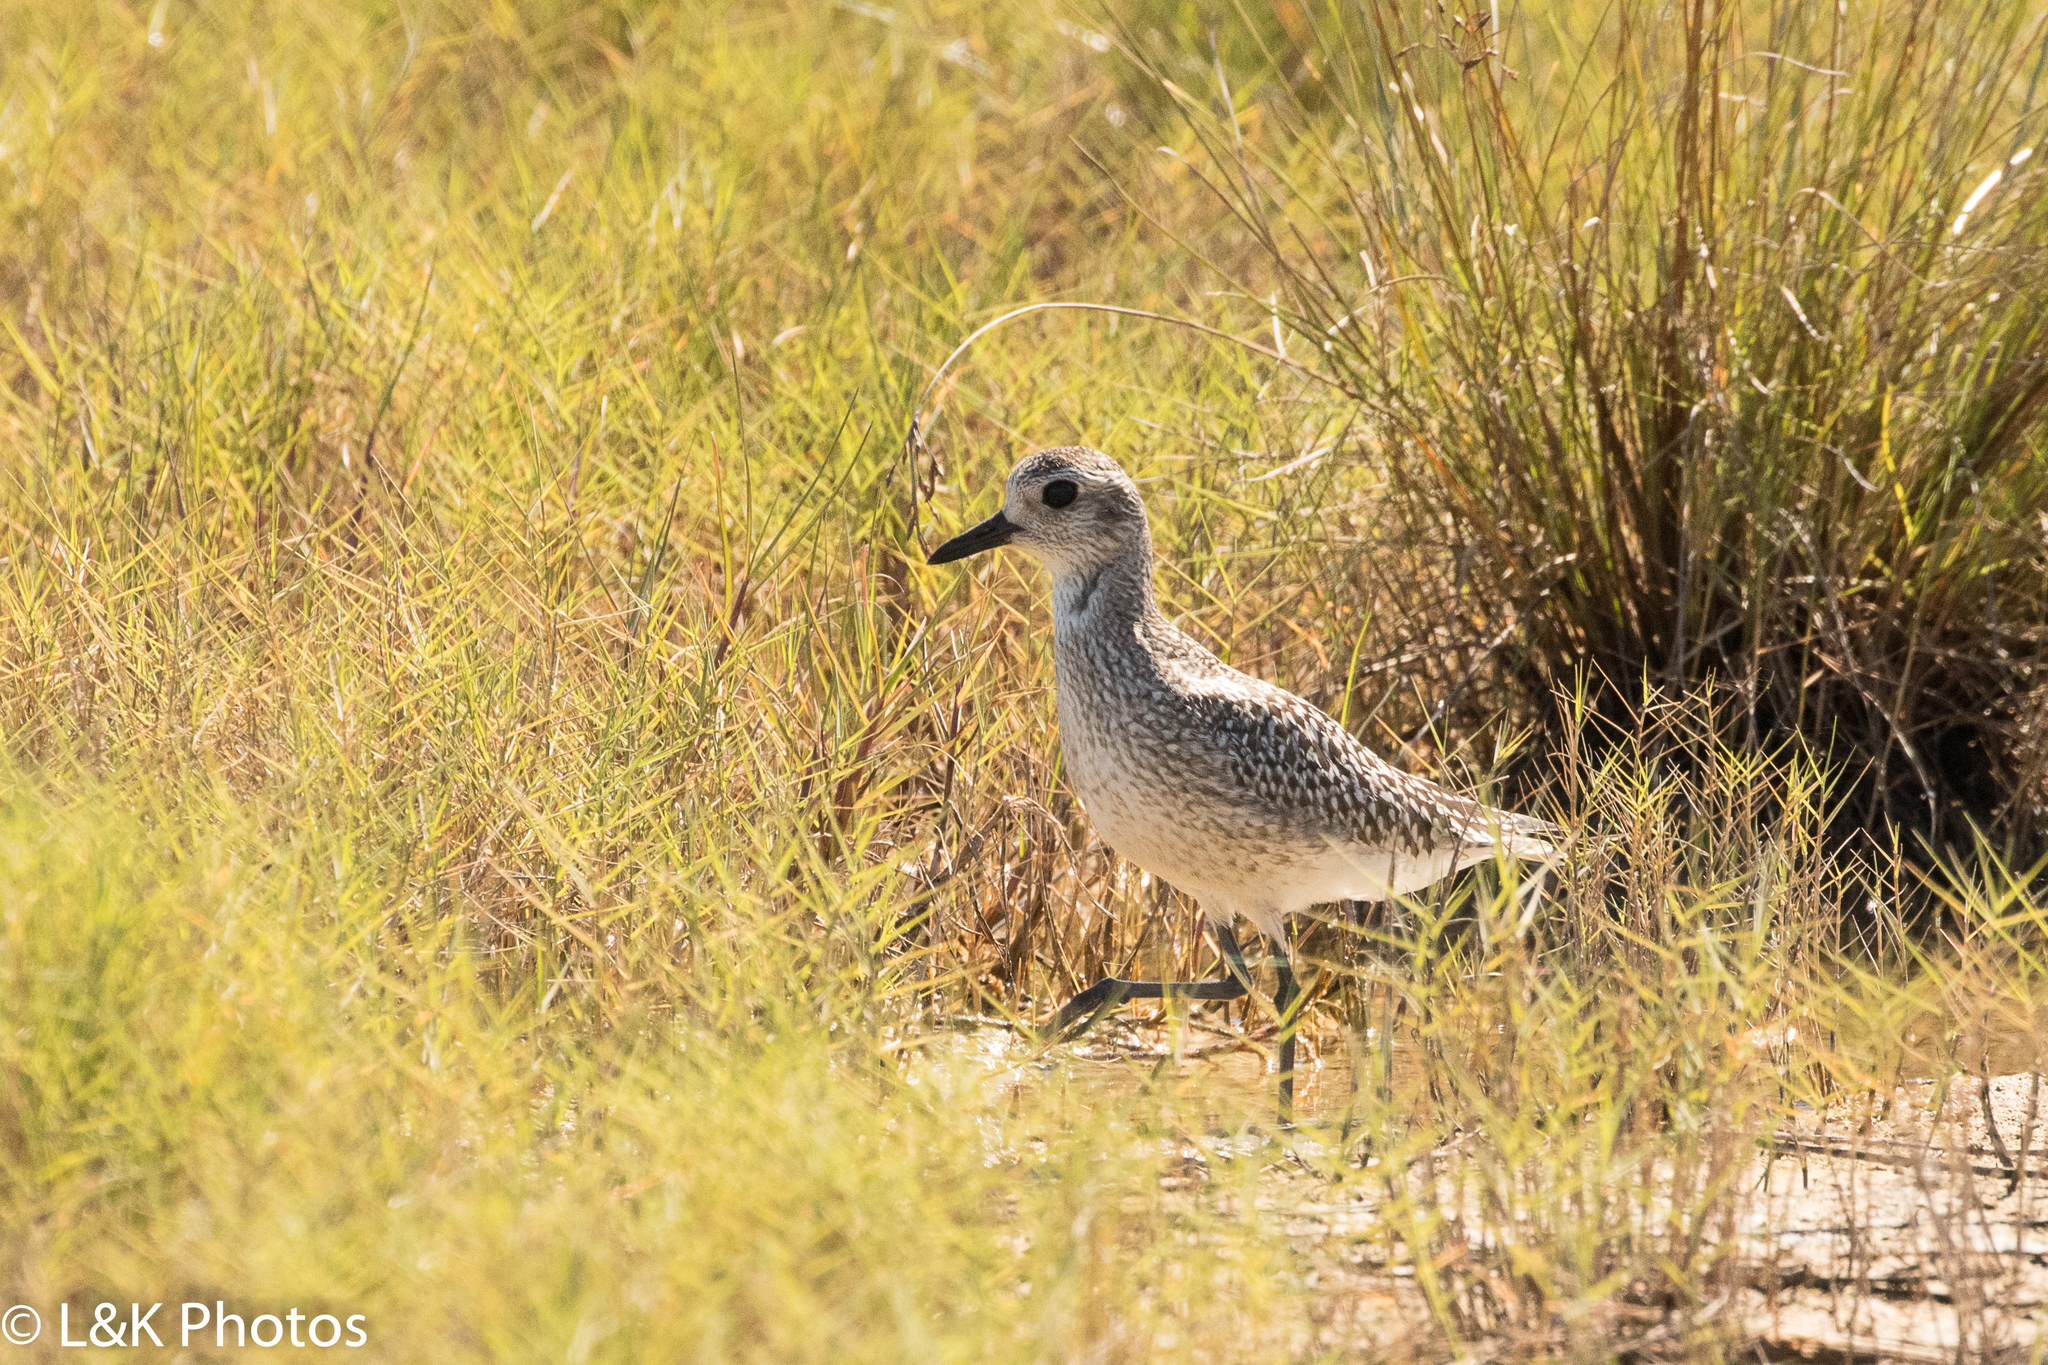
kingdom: Animalia
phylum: Chordata
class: Aves
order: Charadriiformes
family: Charadriidae
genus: Pluvialis
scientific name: Pluvialis squatarola
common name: Grey plover
